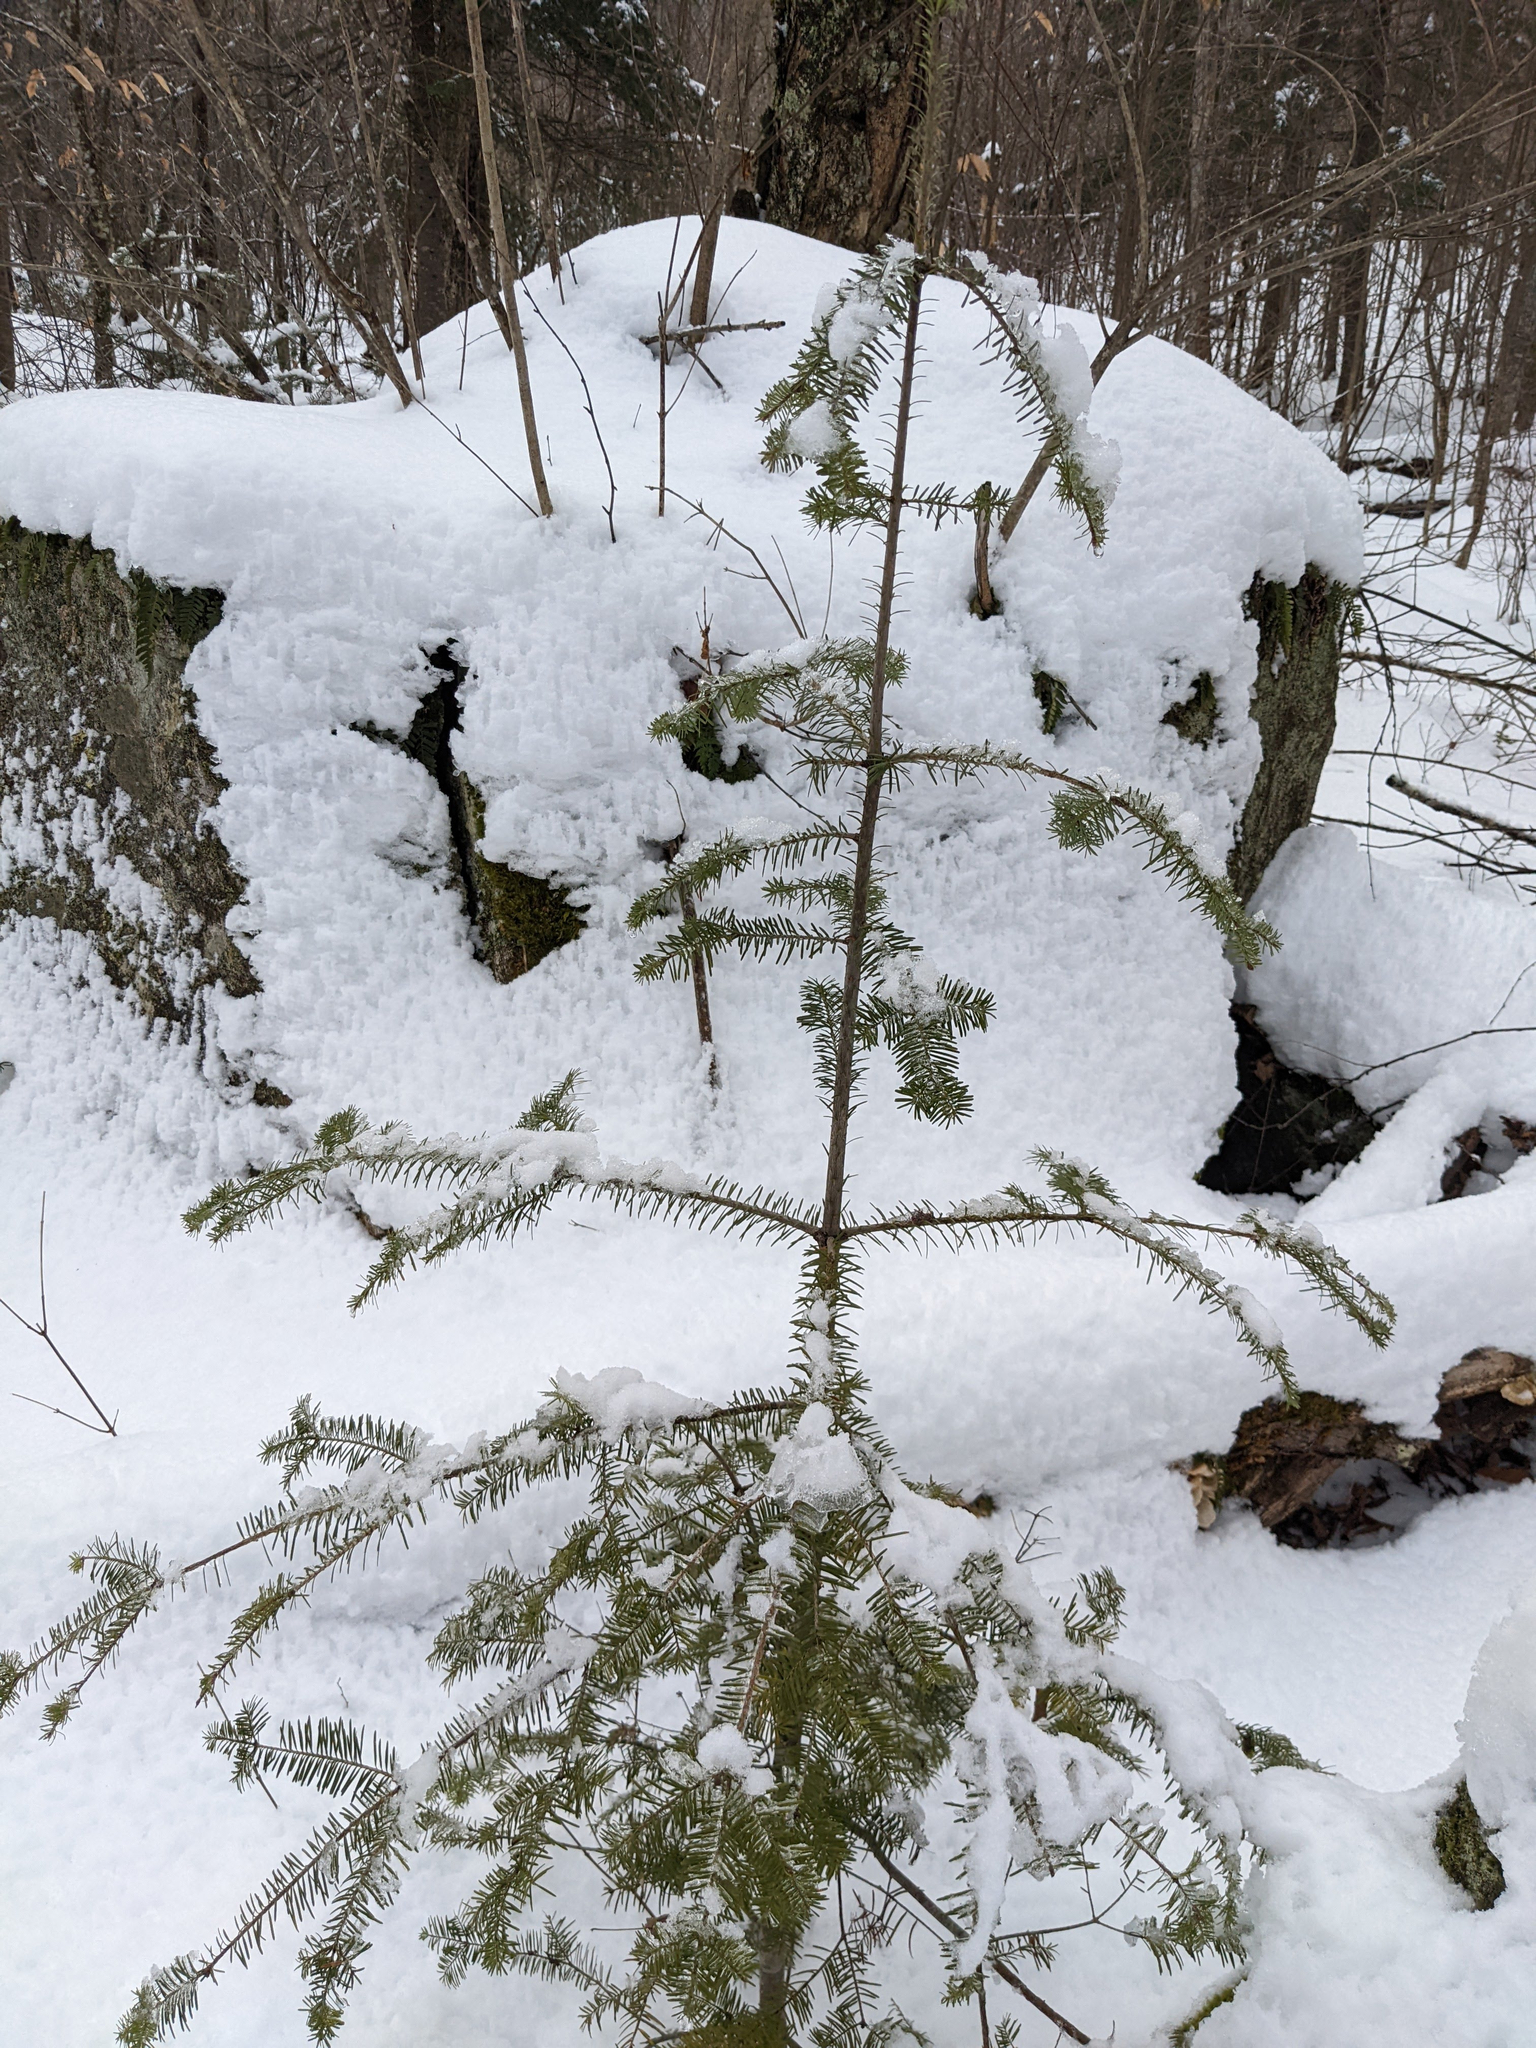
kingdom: Plantae
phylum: Tracheophyta
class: Pinopsida
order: Pinales
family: Pinaceae
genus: Abies
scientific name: Abies balsamea
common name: Balsam fir
